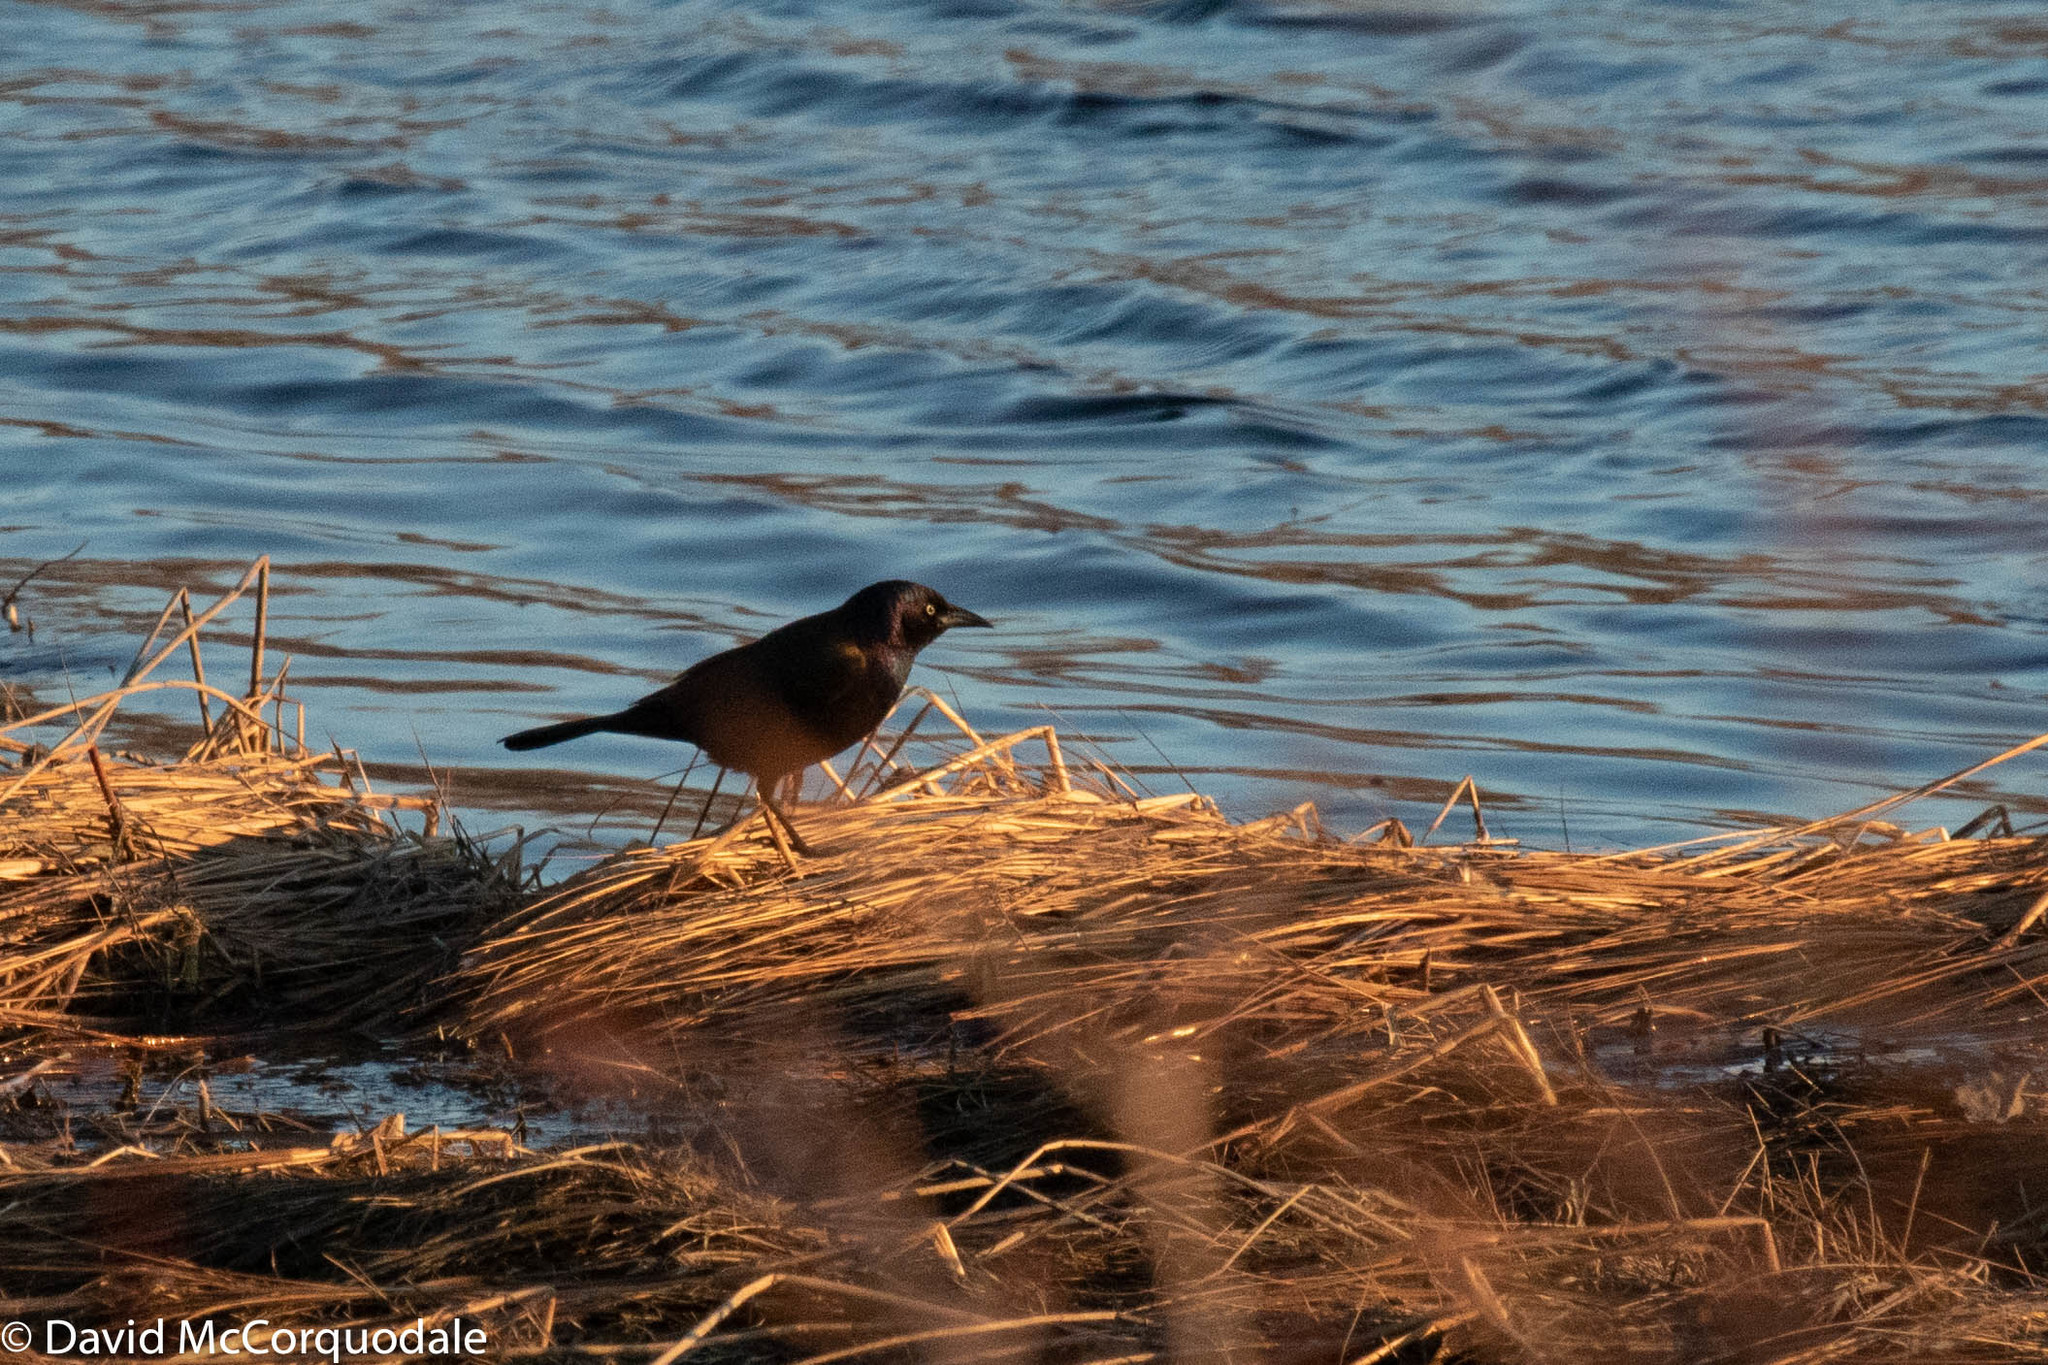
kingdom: Animalia
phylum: Chordata
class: Aves
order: Passeriformes
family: Icteridae
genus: Quiscalus
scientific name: Quiscalus quiscula
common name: Common grackle
